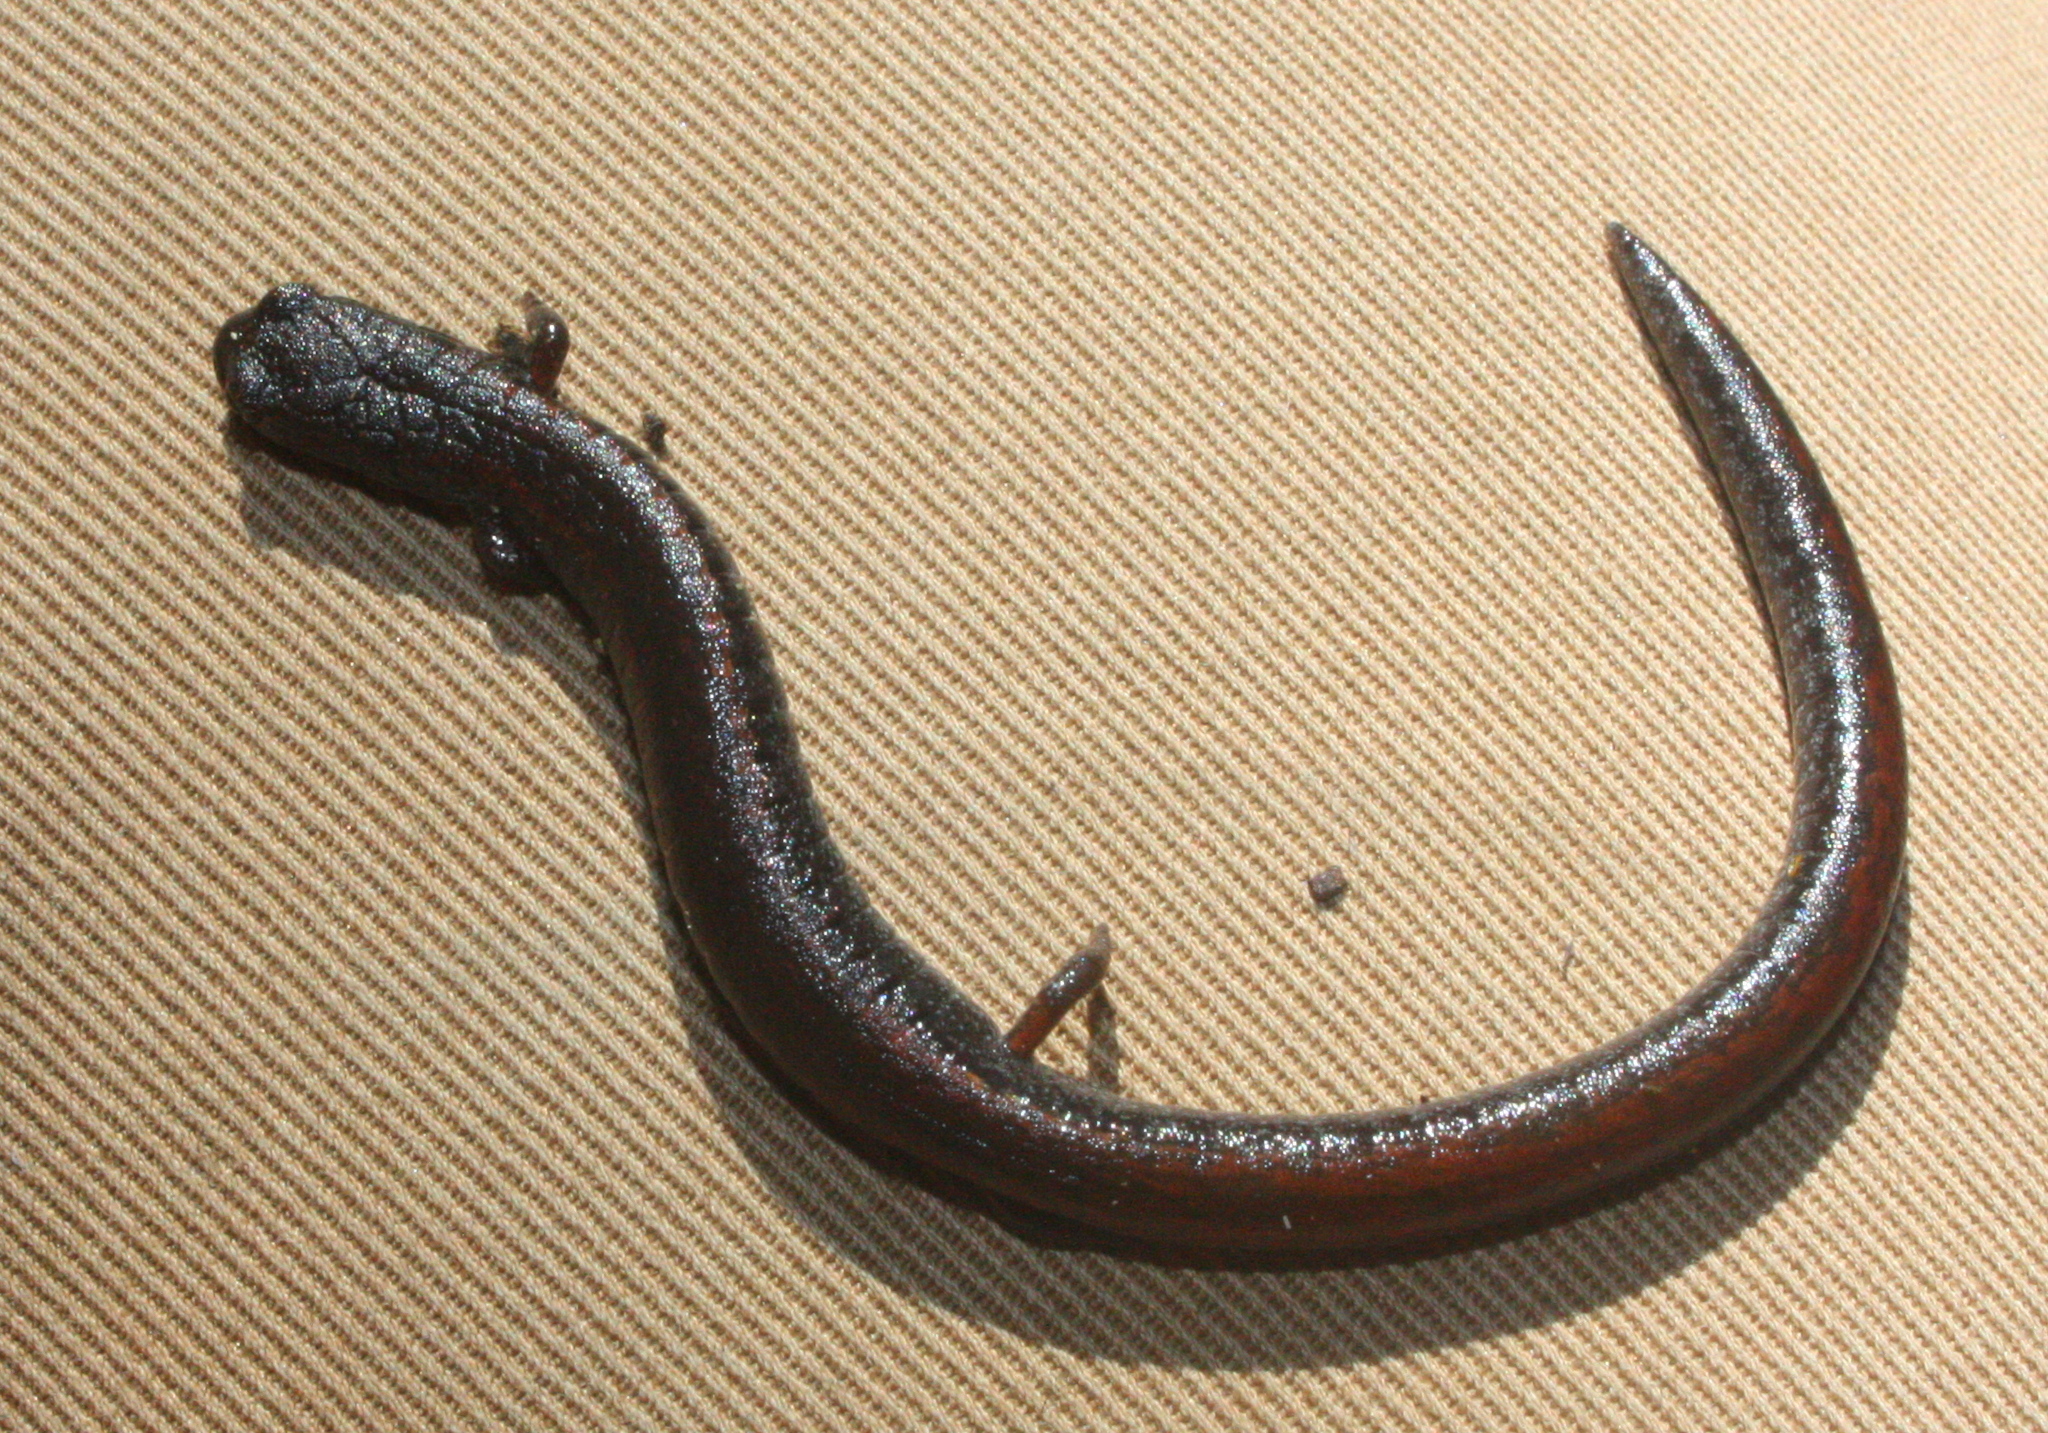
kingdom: Animalia
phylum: Chordata
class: Amphibia
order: Caudata
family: Plethodontidae
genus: Batrachoseps
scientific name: Batrachoseps attenuatus
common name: California slender salamander
